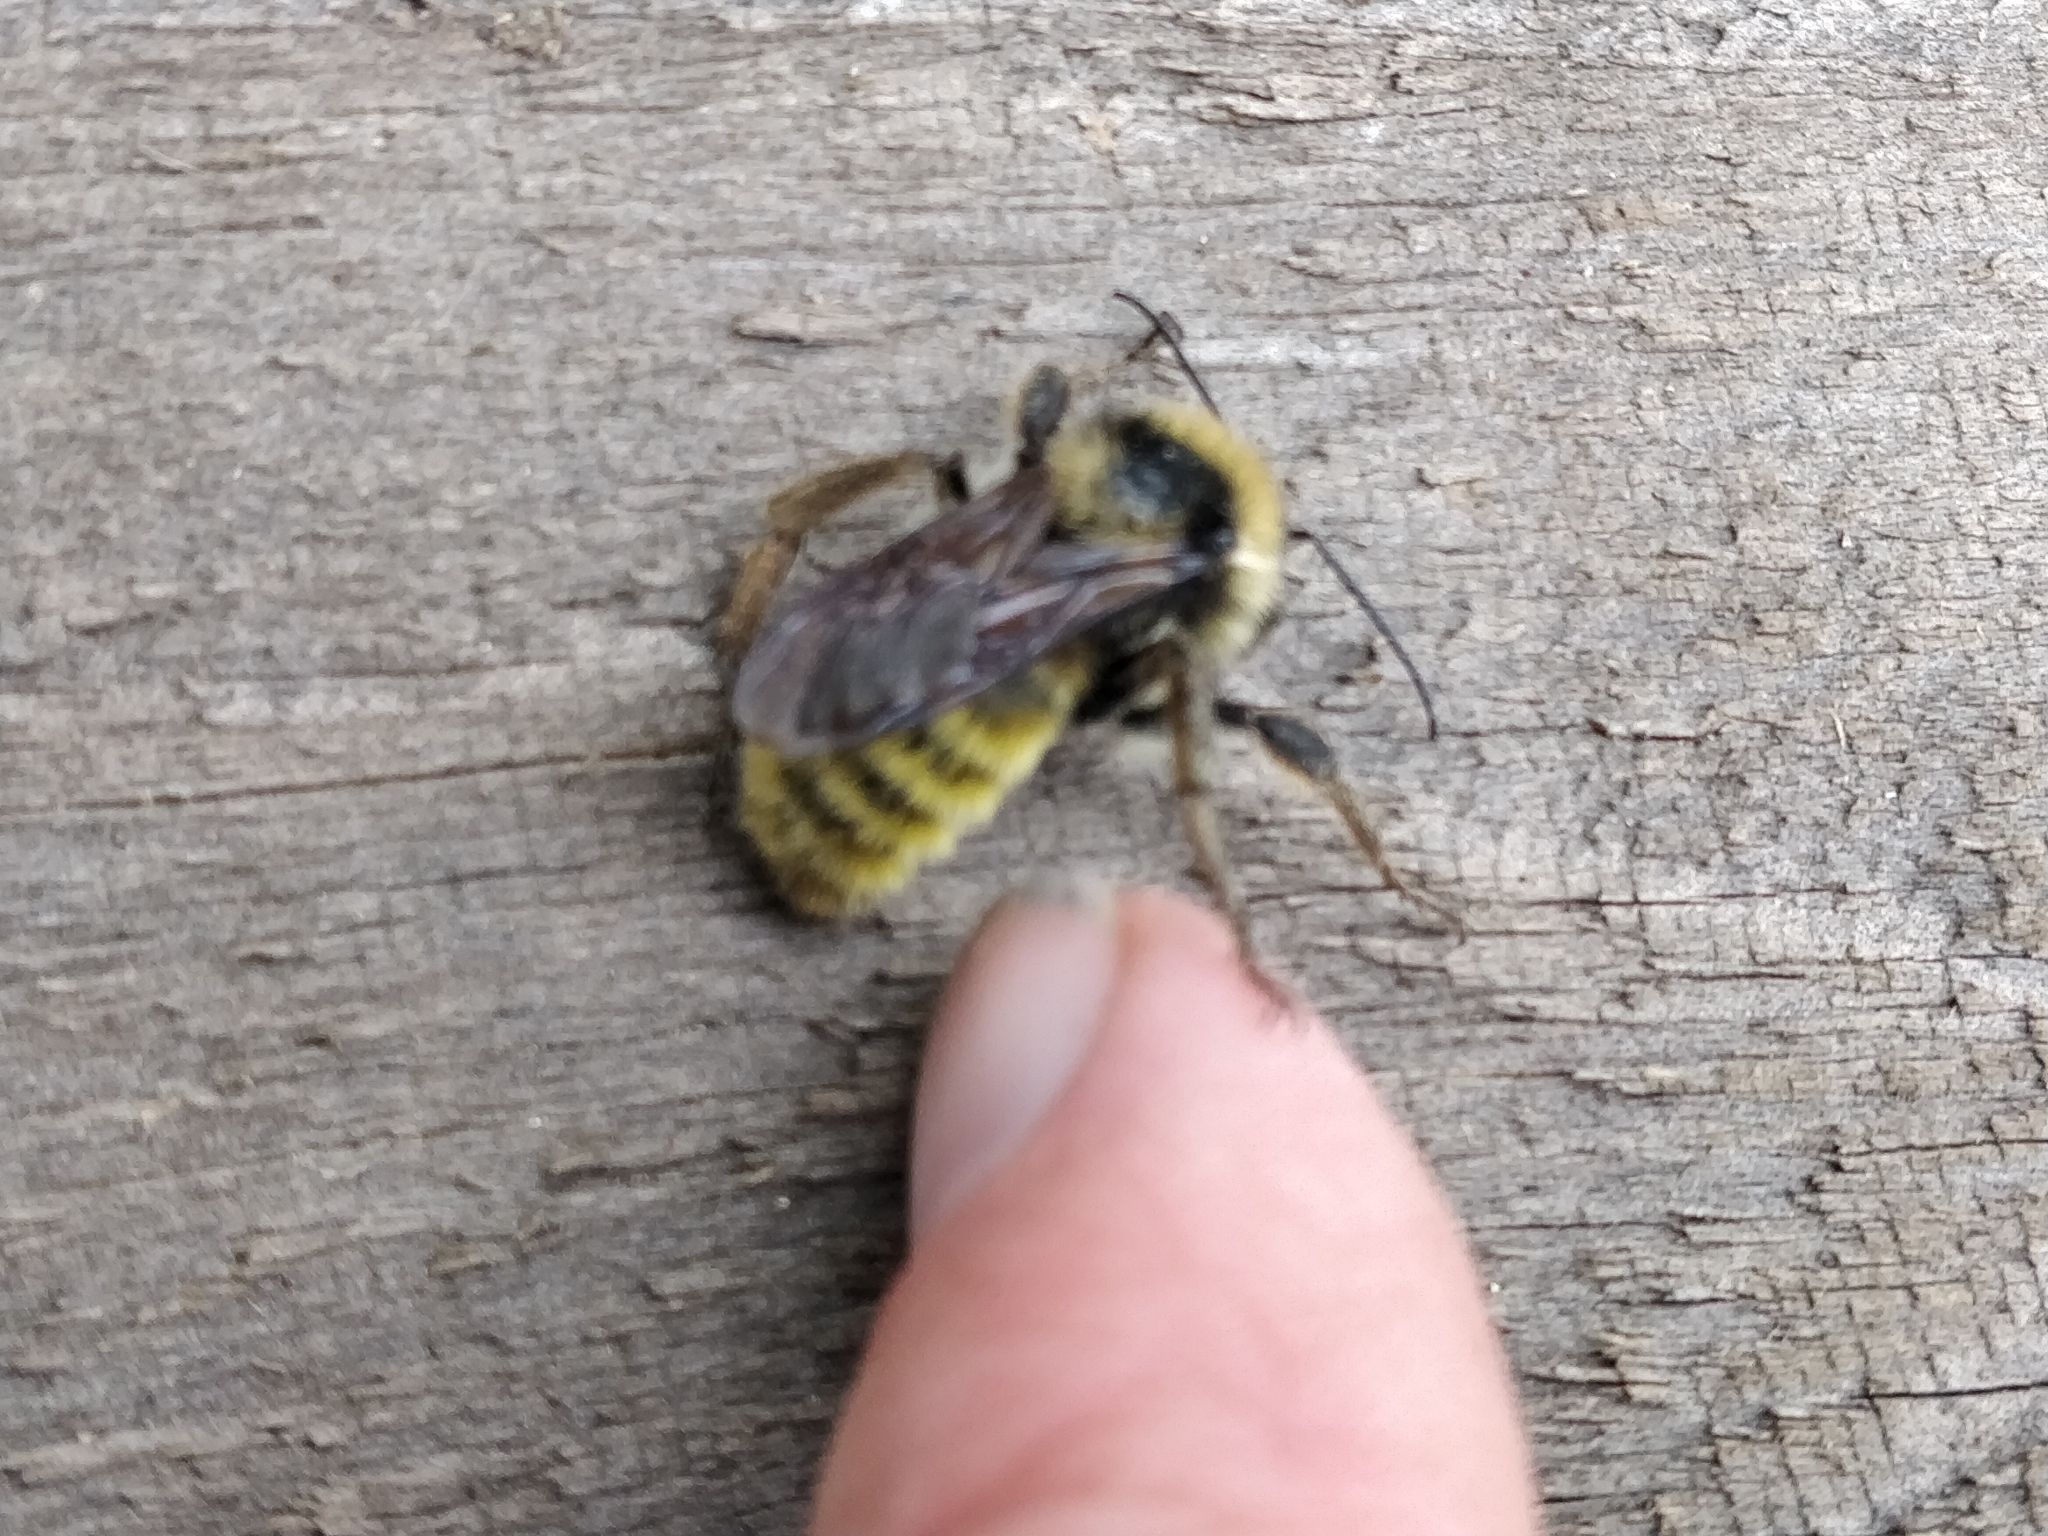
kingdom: Animalia
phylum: Arthropoda
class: Insecta
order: Hymenoptera
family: Apidae
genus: Bombus
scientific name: Bombus pensylvanicus
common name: Bumble bee
